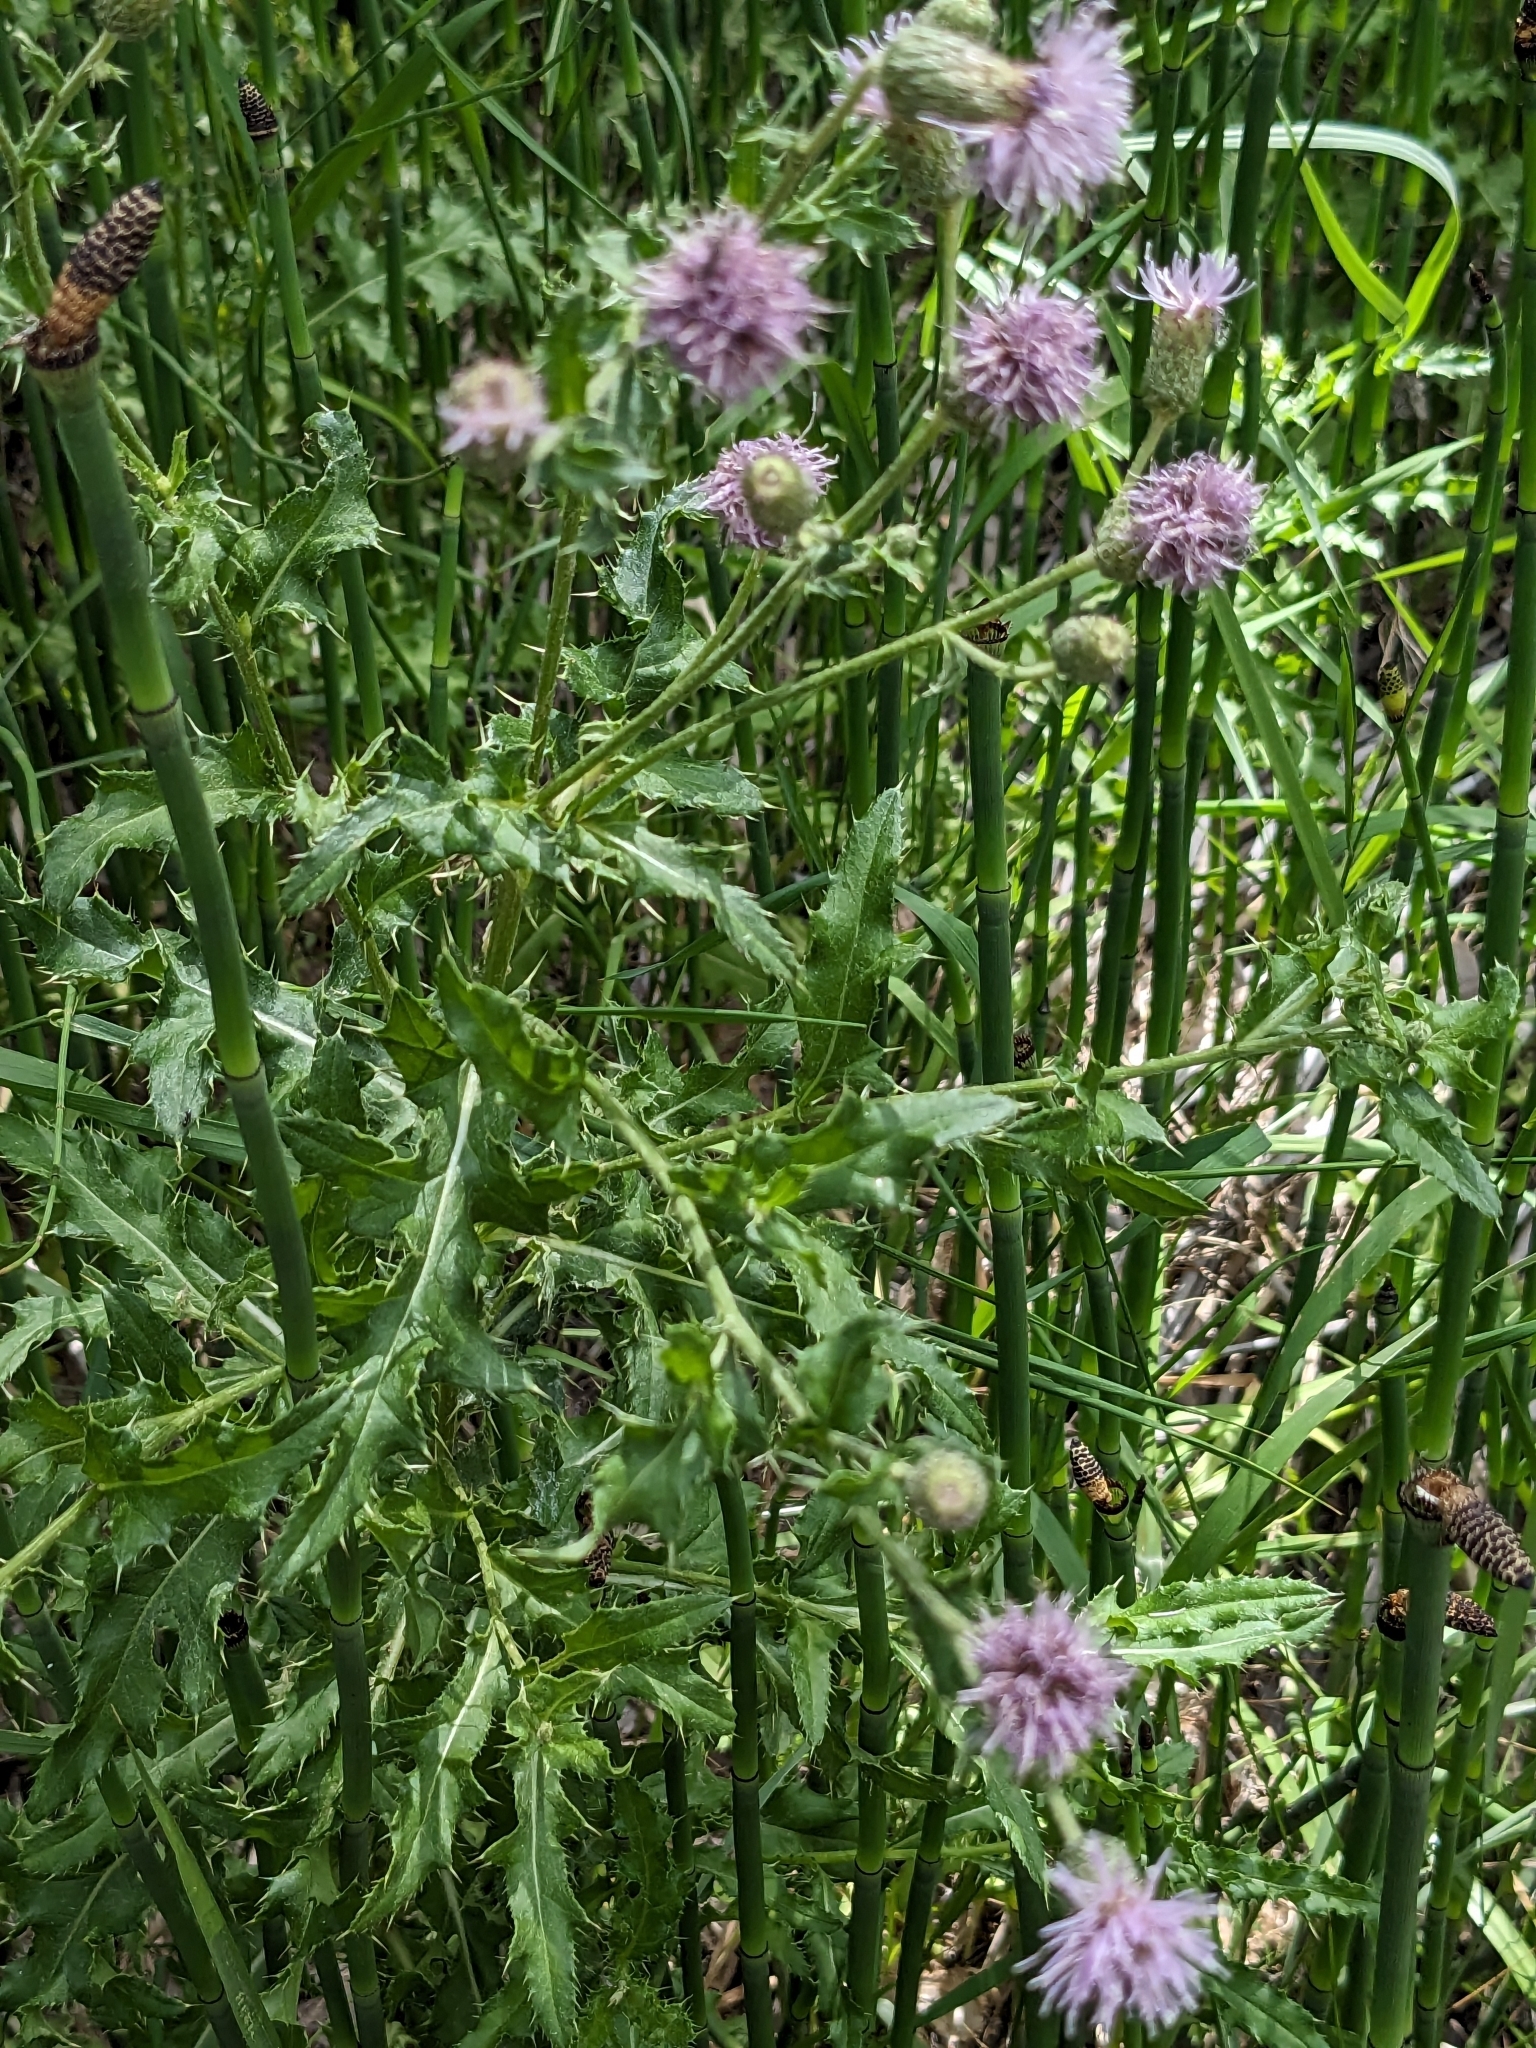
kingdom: Plantae
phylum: Tracheophyta
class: Magnoliopsida
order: Asterales
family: Asteraceae
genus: Cirsium
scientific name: Cirsium arvense
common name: Creeping thistle
